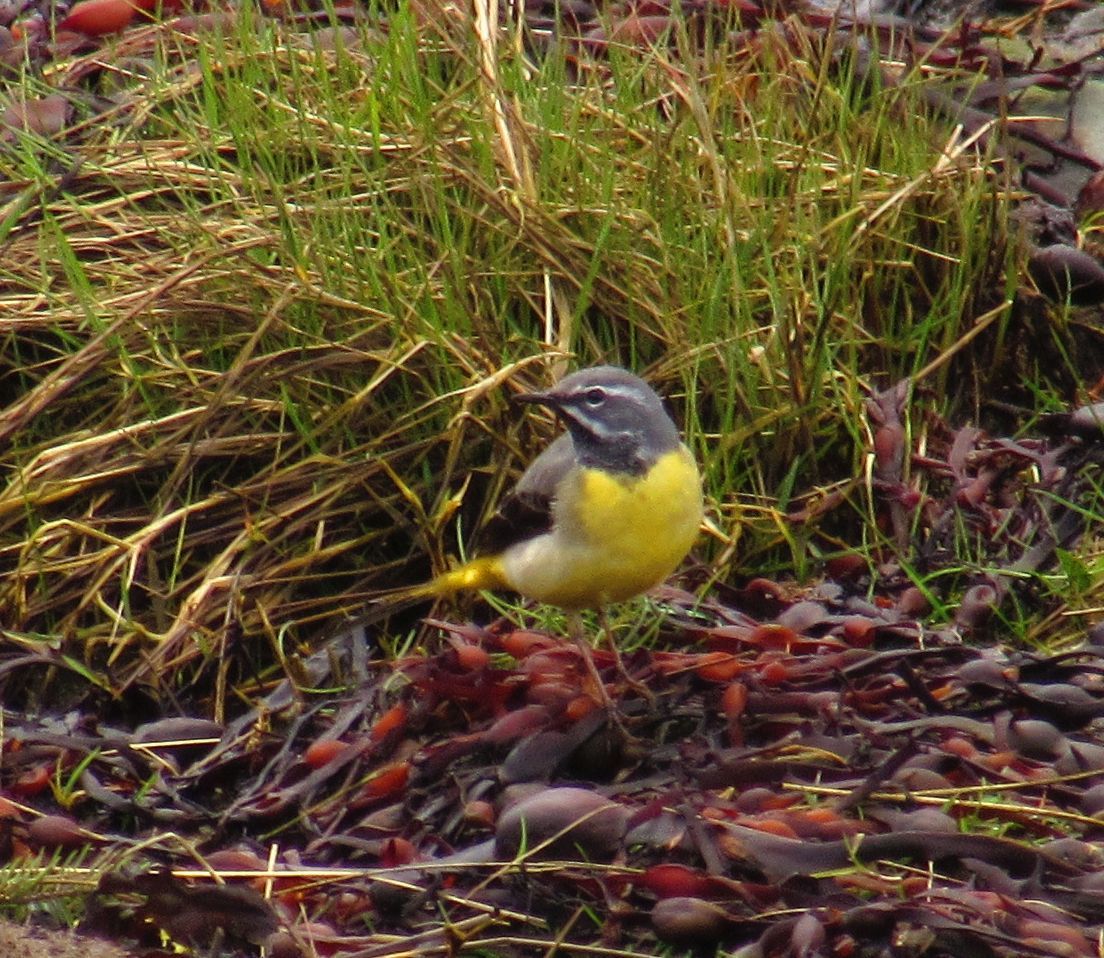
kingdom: Animalia
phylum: Chordata
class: Aves
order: Passeriformes
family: Motacillidae
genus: Motacilla
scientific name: Motacilla cinerea
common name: Grey wagtail
